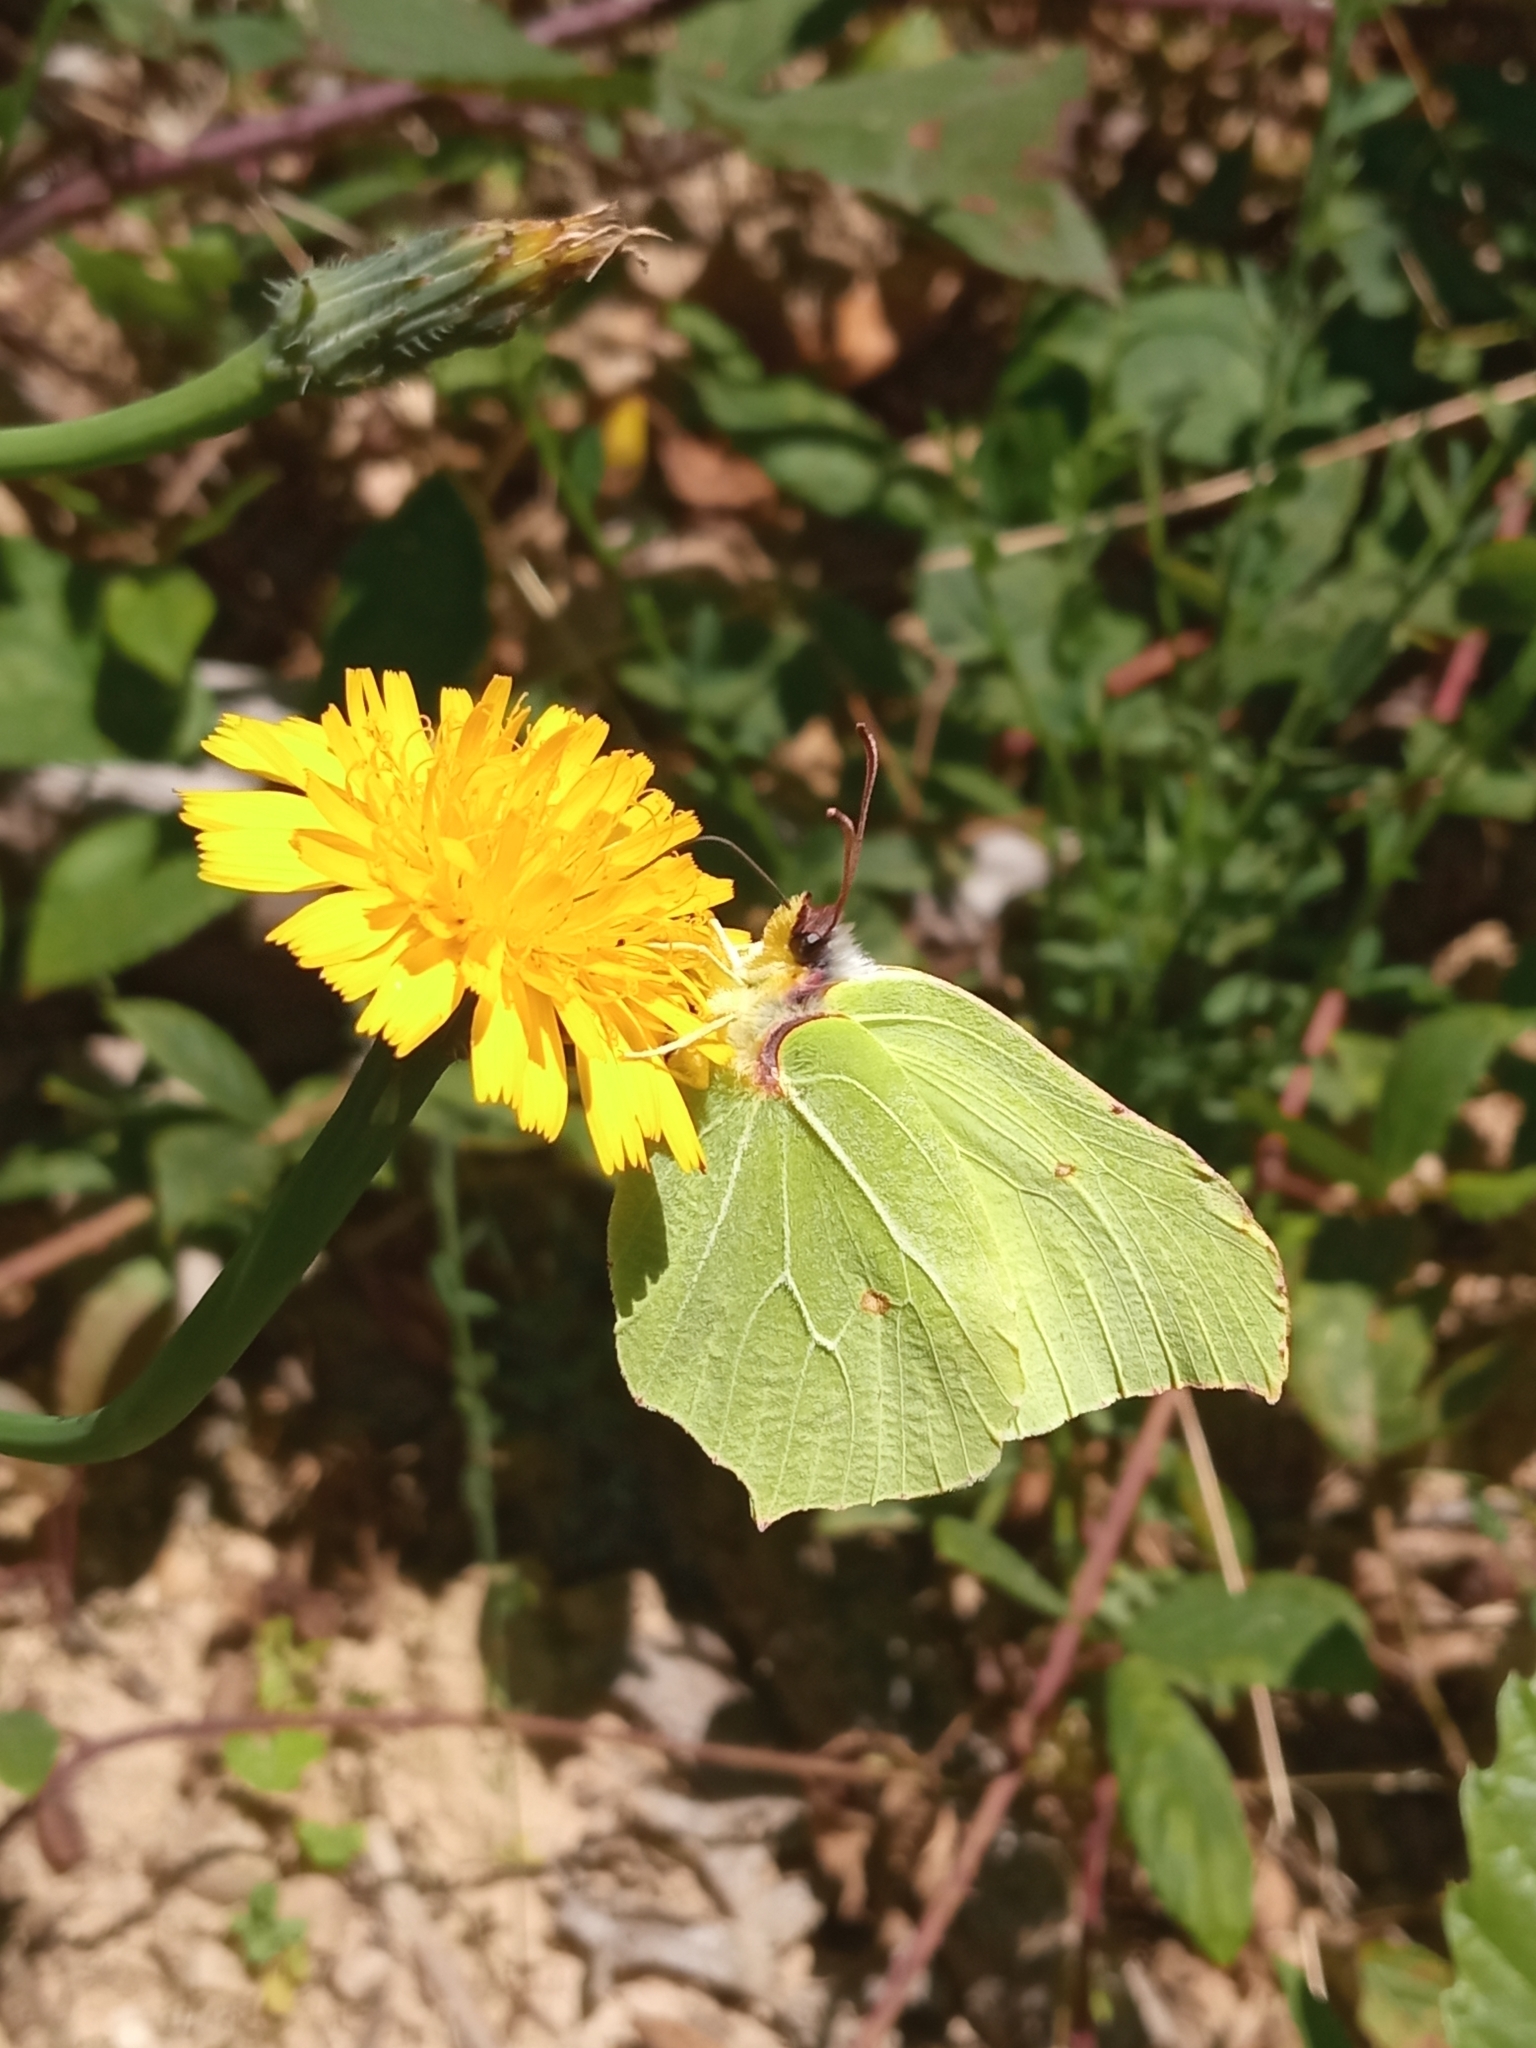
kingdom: Animalia
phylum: Arthropoda
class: Insecta
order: Lepidoptera
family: Pieridae
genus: Gonepteryx
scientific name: Gonepteryx rhamni
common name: Brimstone
